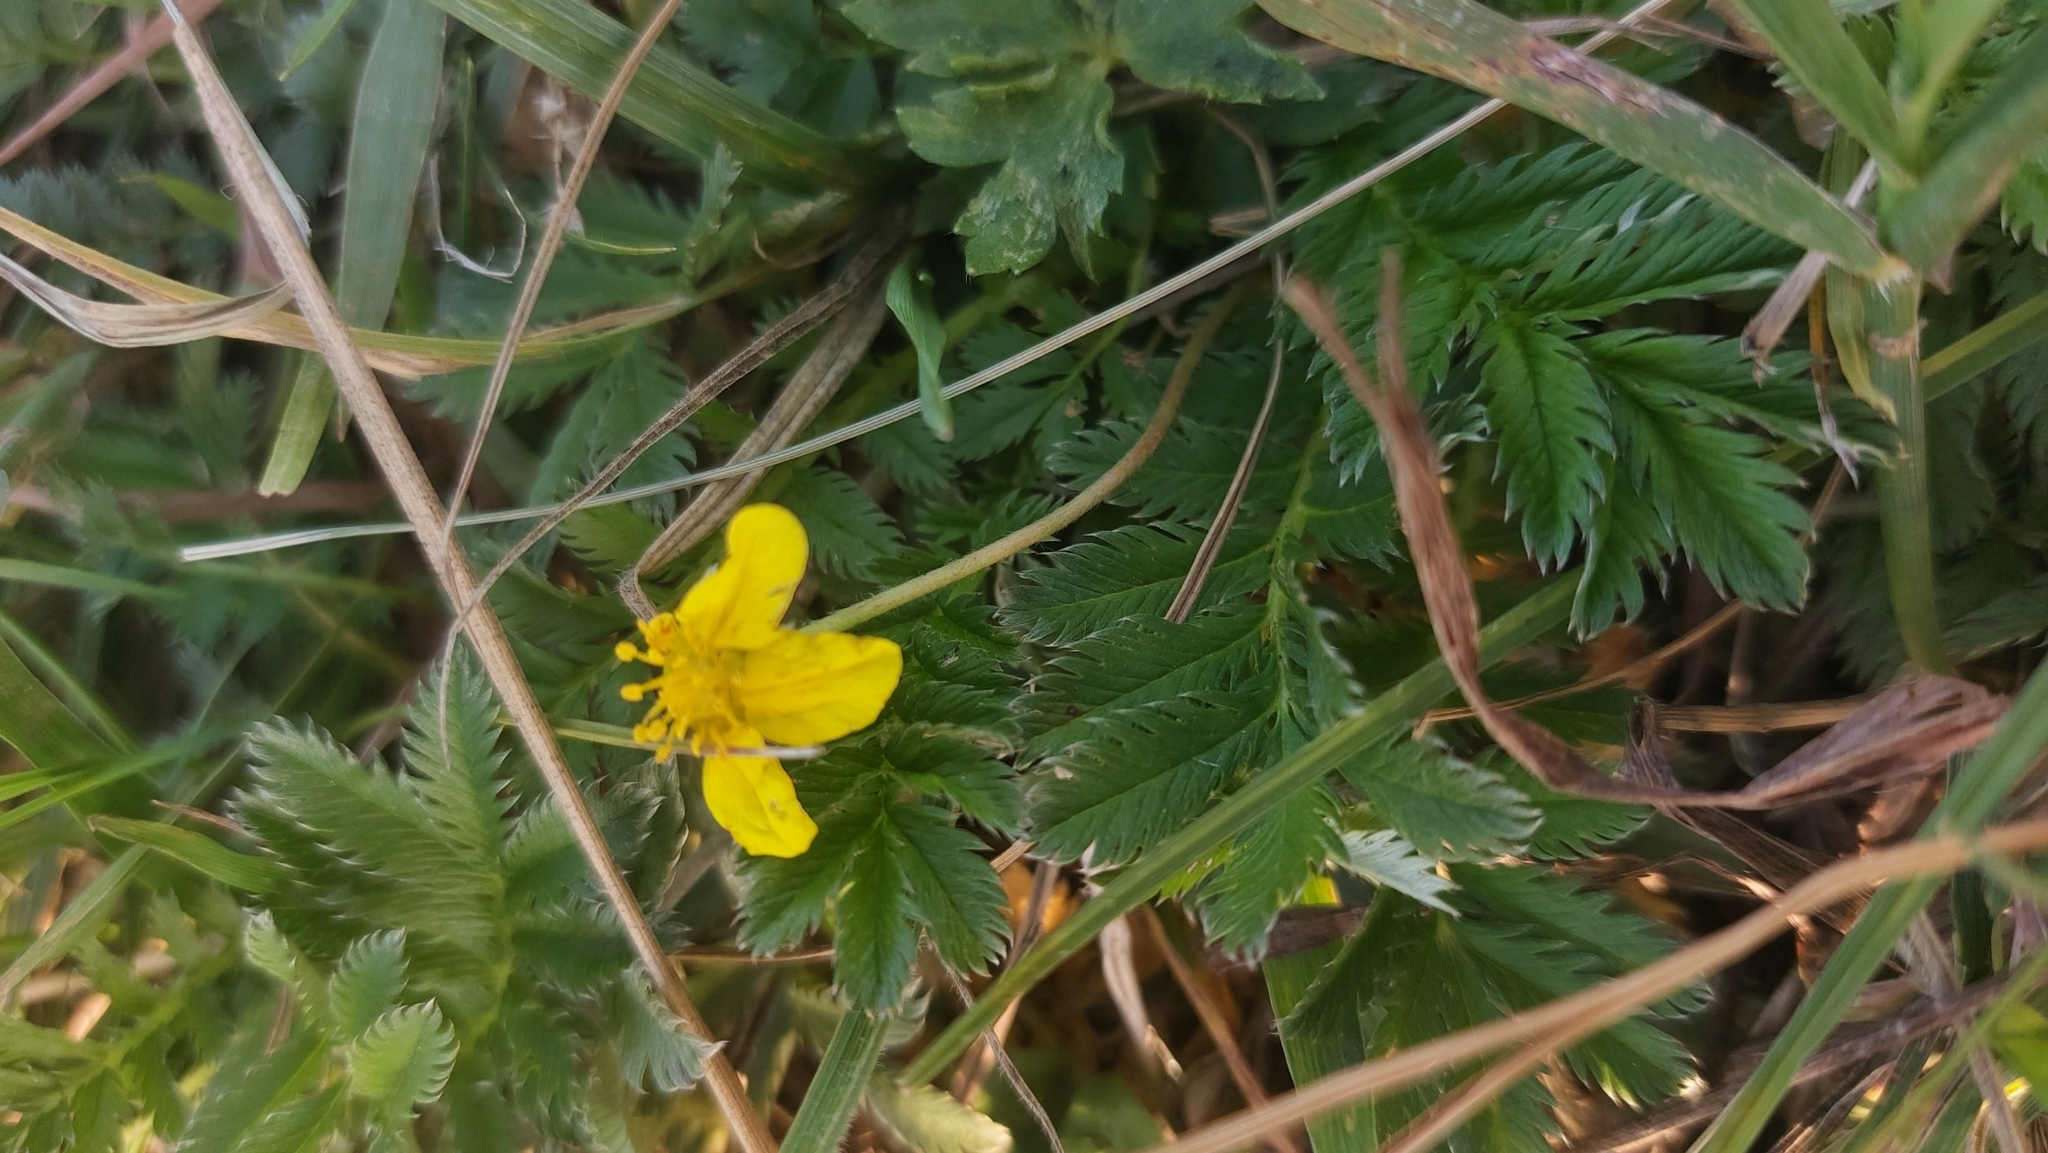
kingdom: Plantae
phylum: Tracheophyta
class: Magnoliopsida
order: Rosales
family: Rosaceae
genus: Argentina
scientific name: Argentina anserina
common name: Common silverweed
